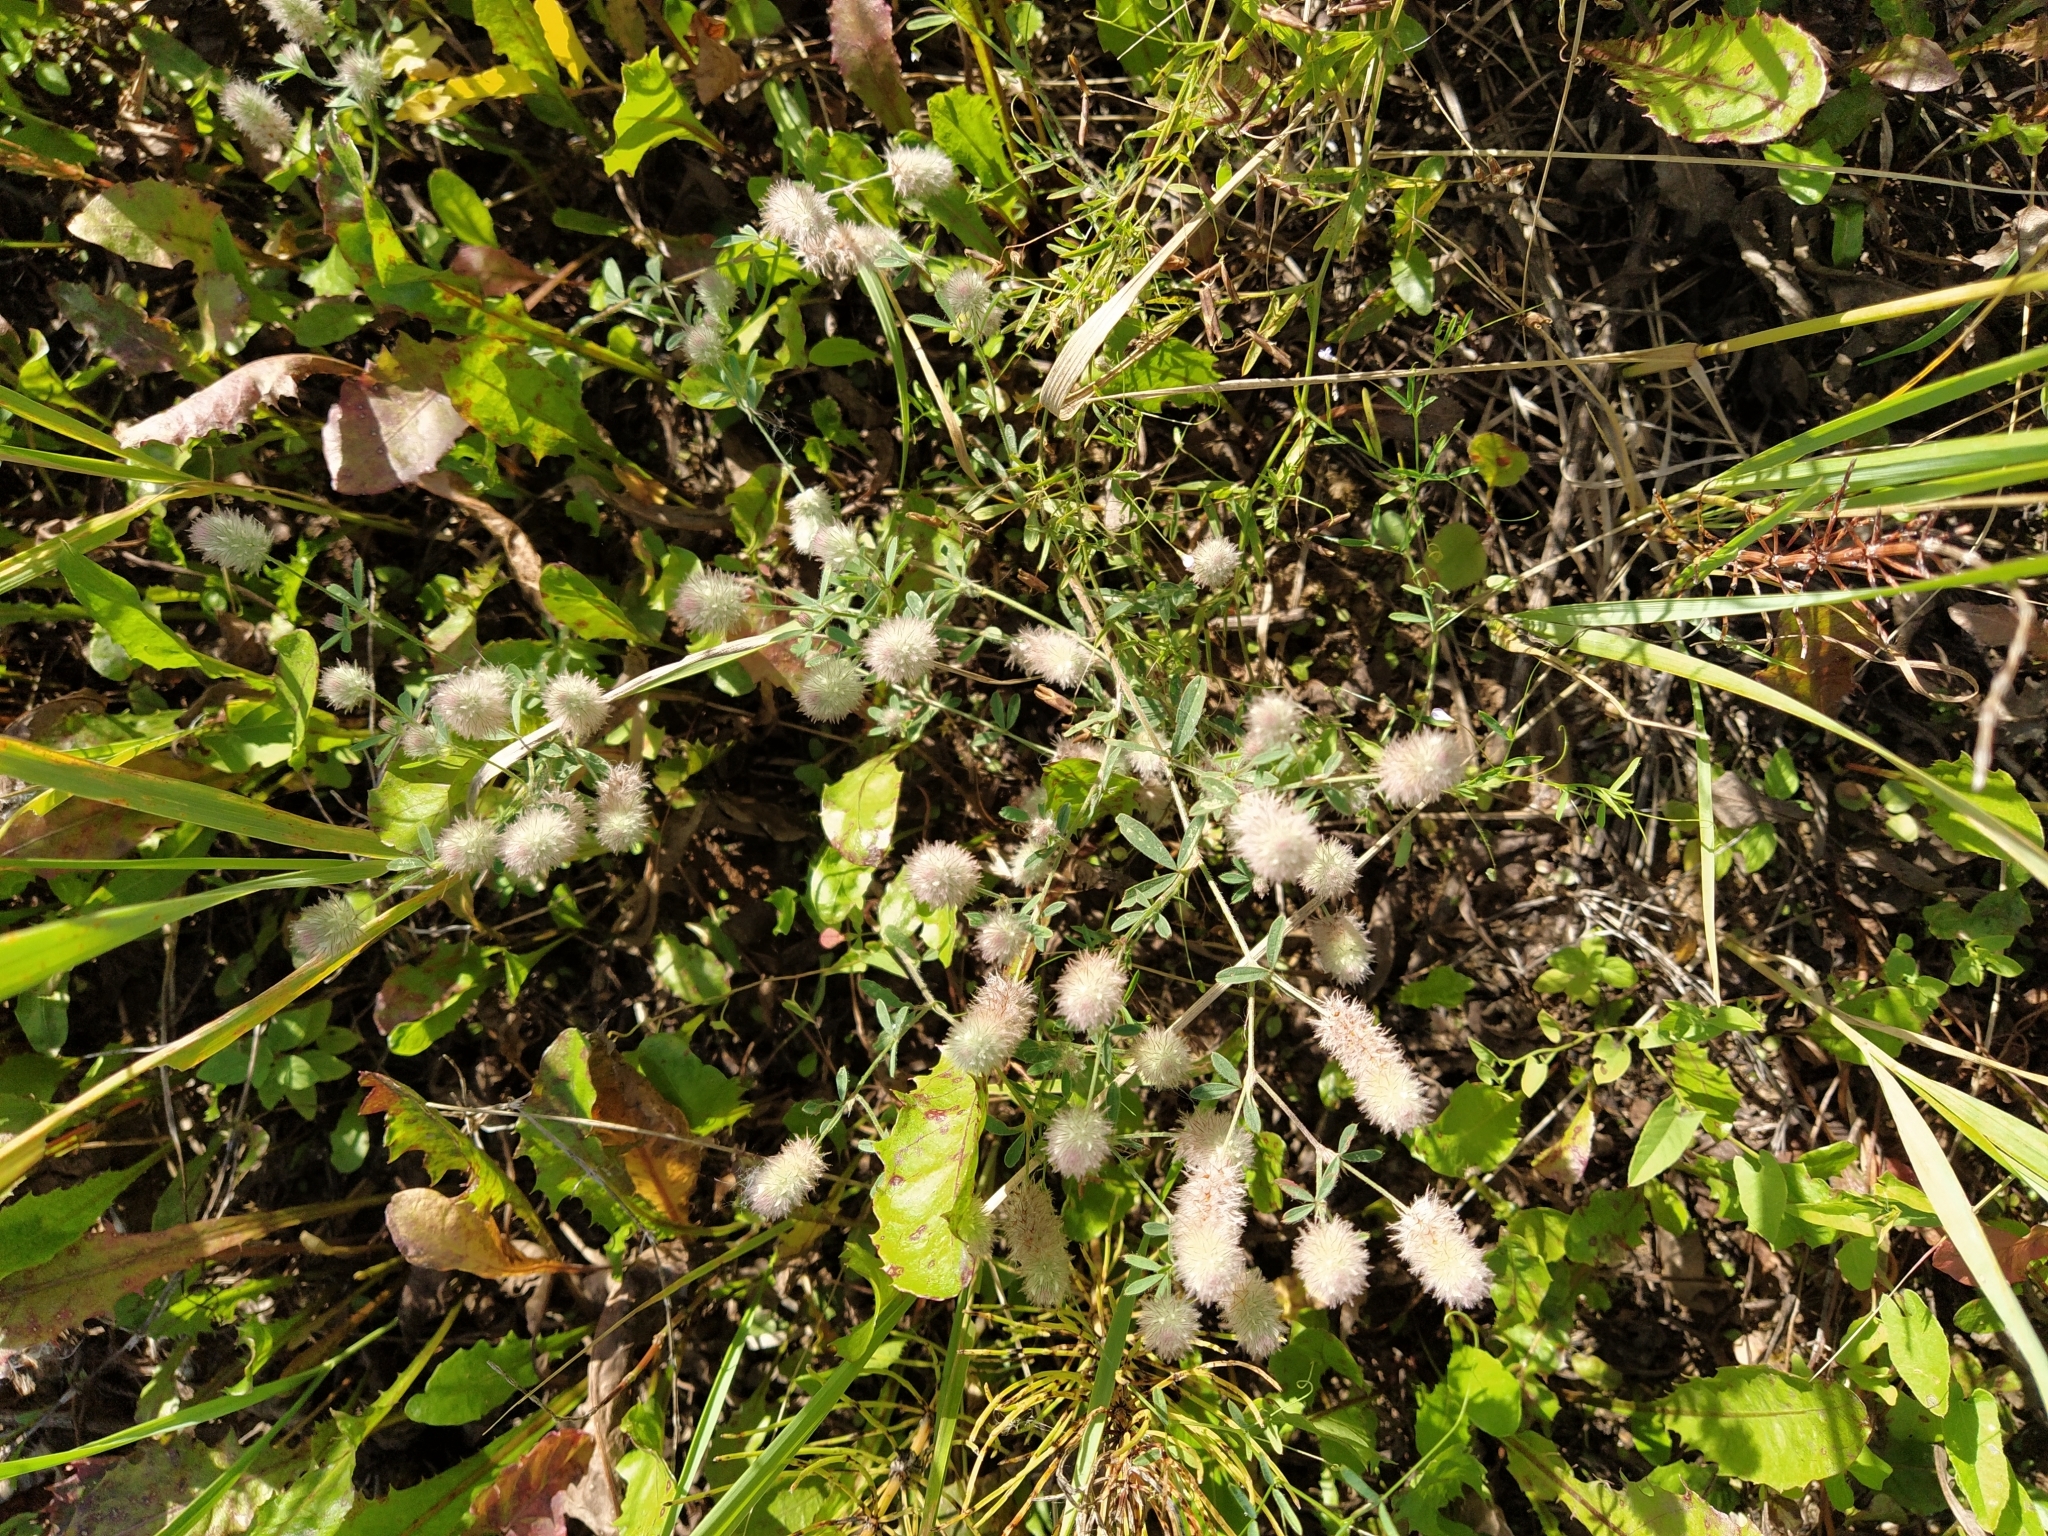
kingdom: Plantae
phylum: Tracheophyta
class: Magnoliopsida
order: Fabales
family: Fabaceae
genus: Trifolium
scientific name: Trifolium arvense
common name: Hare's-foot clover
